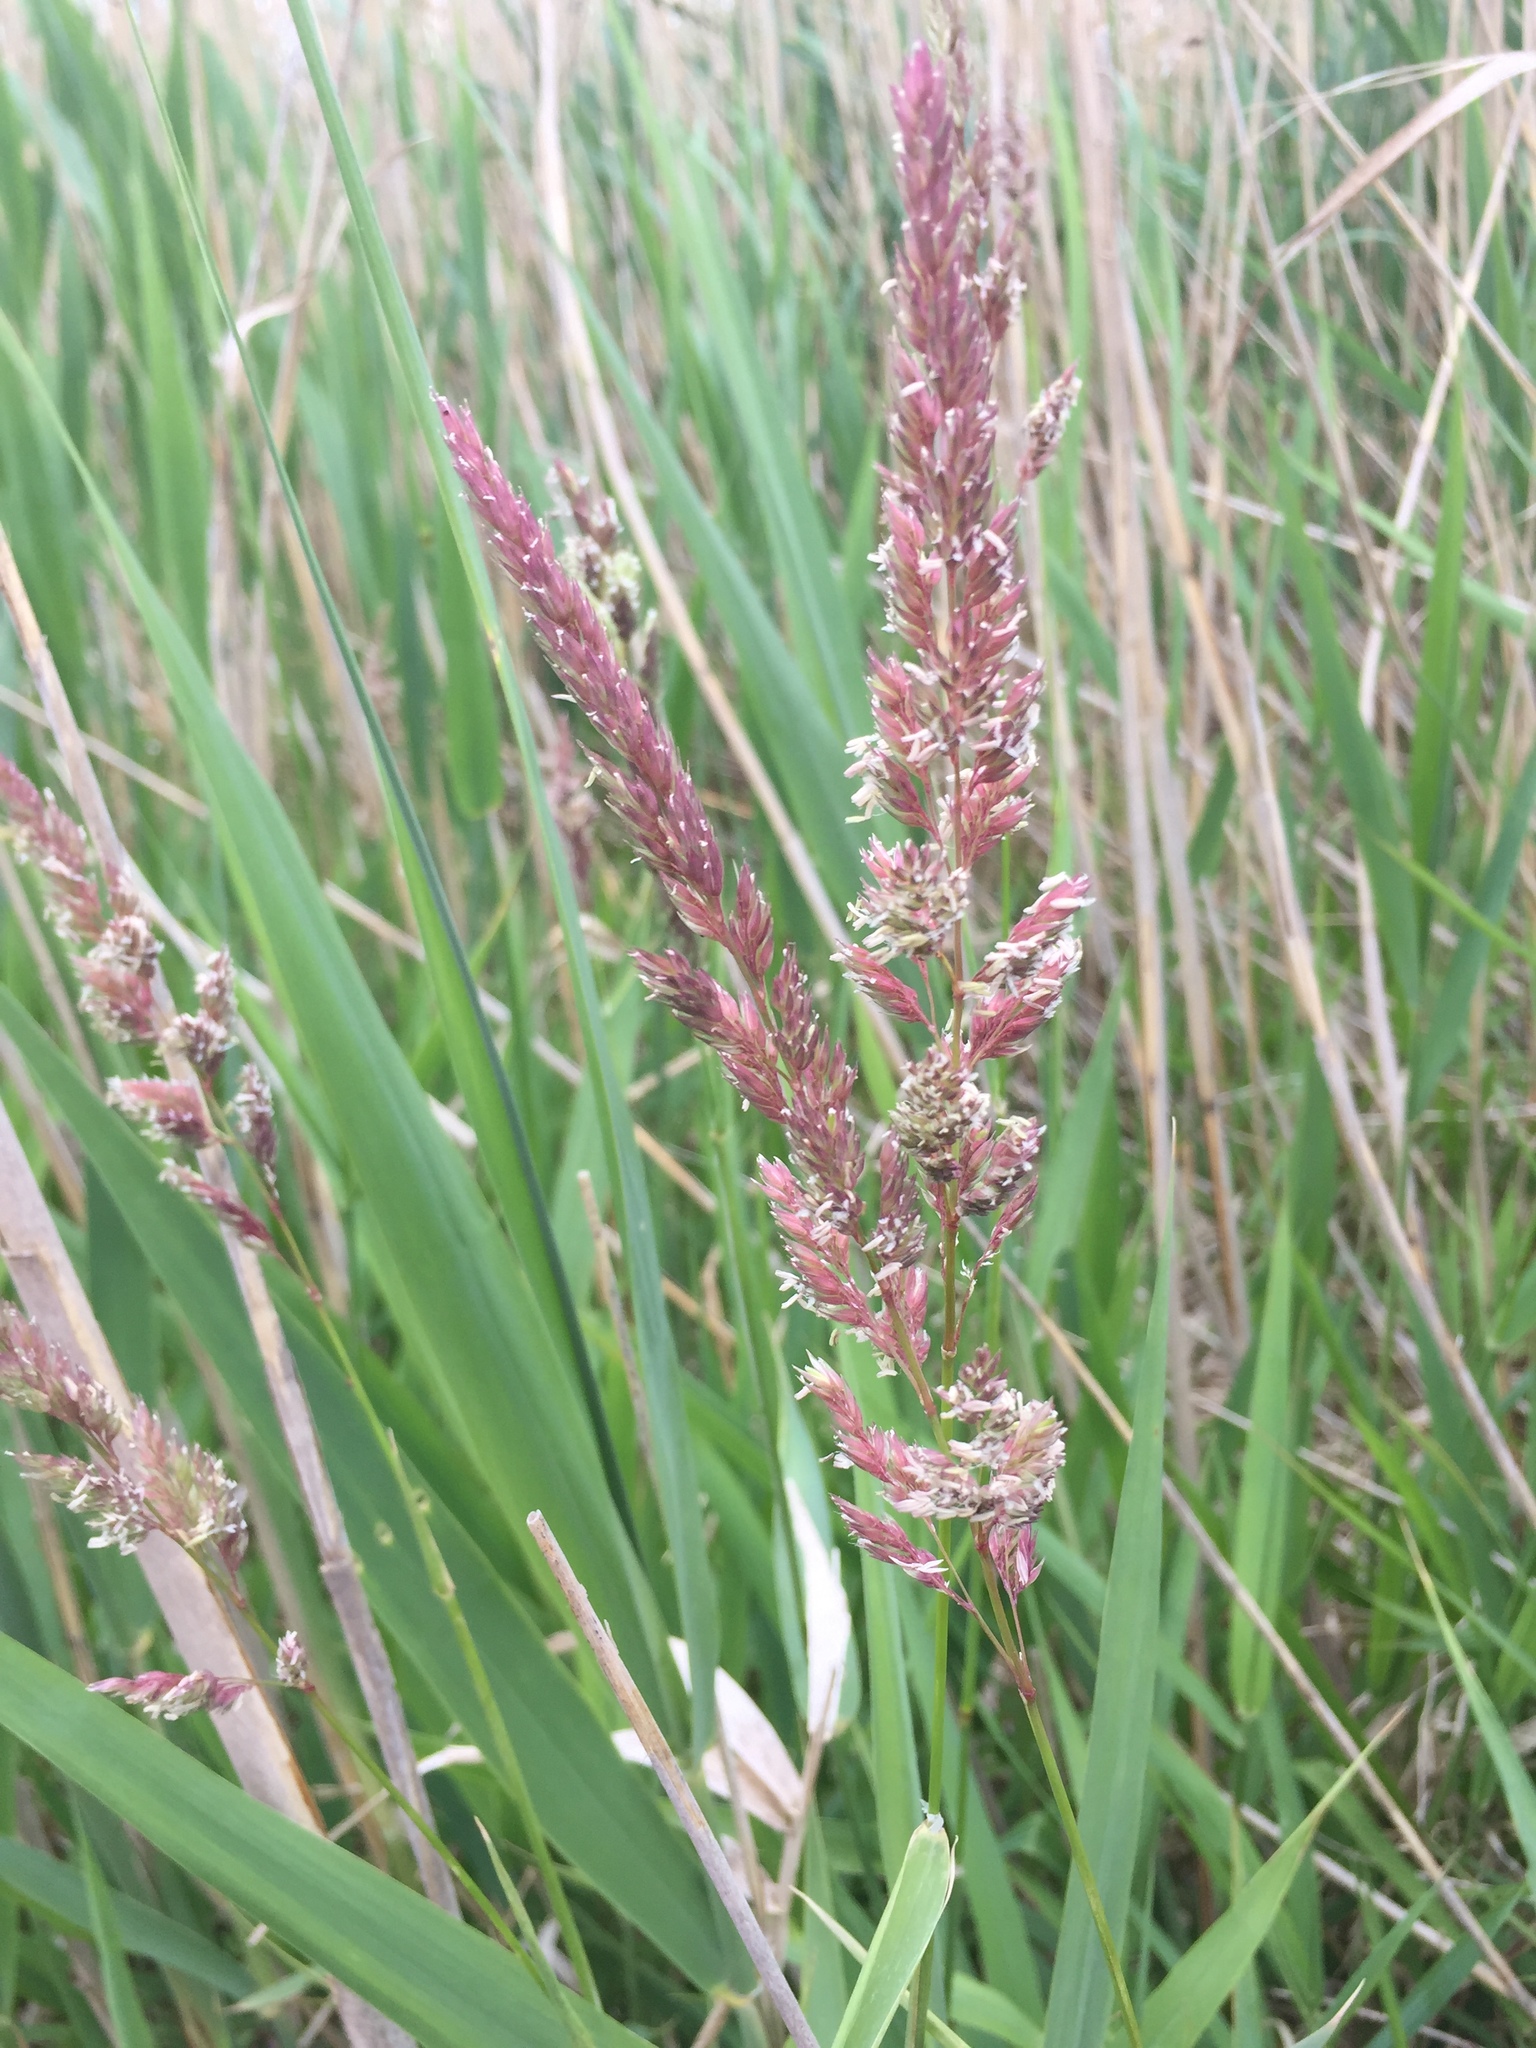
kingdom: Plantae
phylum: Tracheophyta
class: Liliopsida
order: Poales
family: Poaceae
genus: Phalaris
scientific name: Phalaris arundinacea
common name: Reed canary-grass
